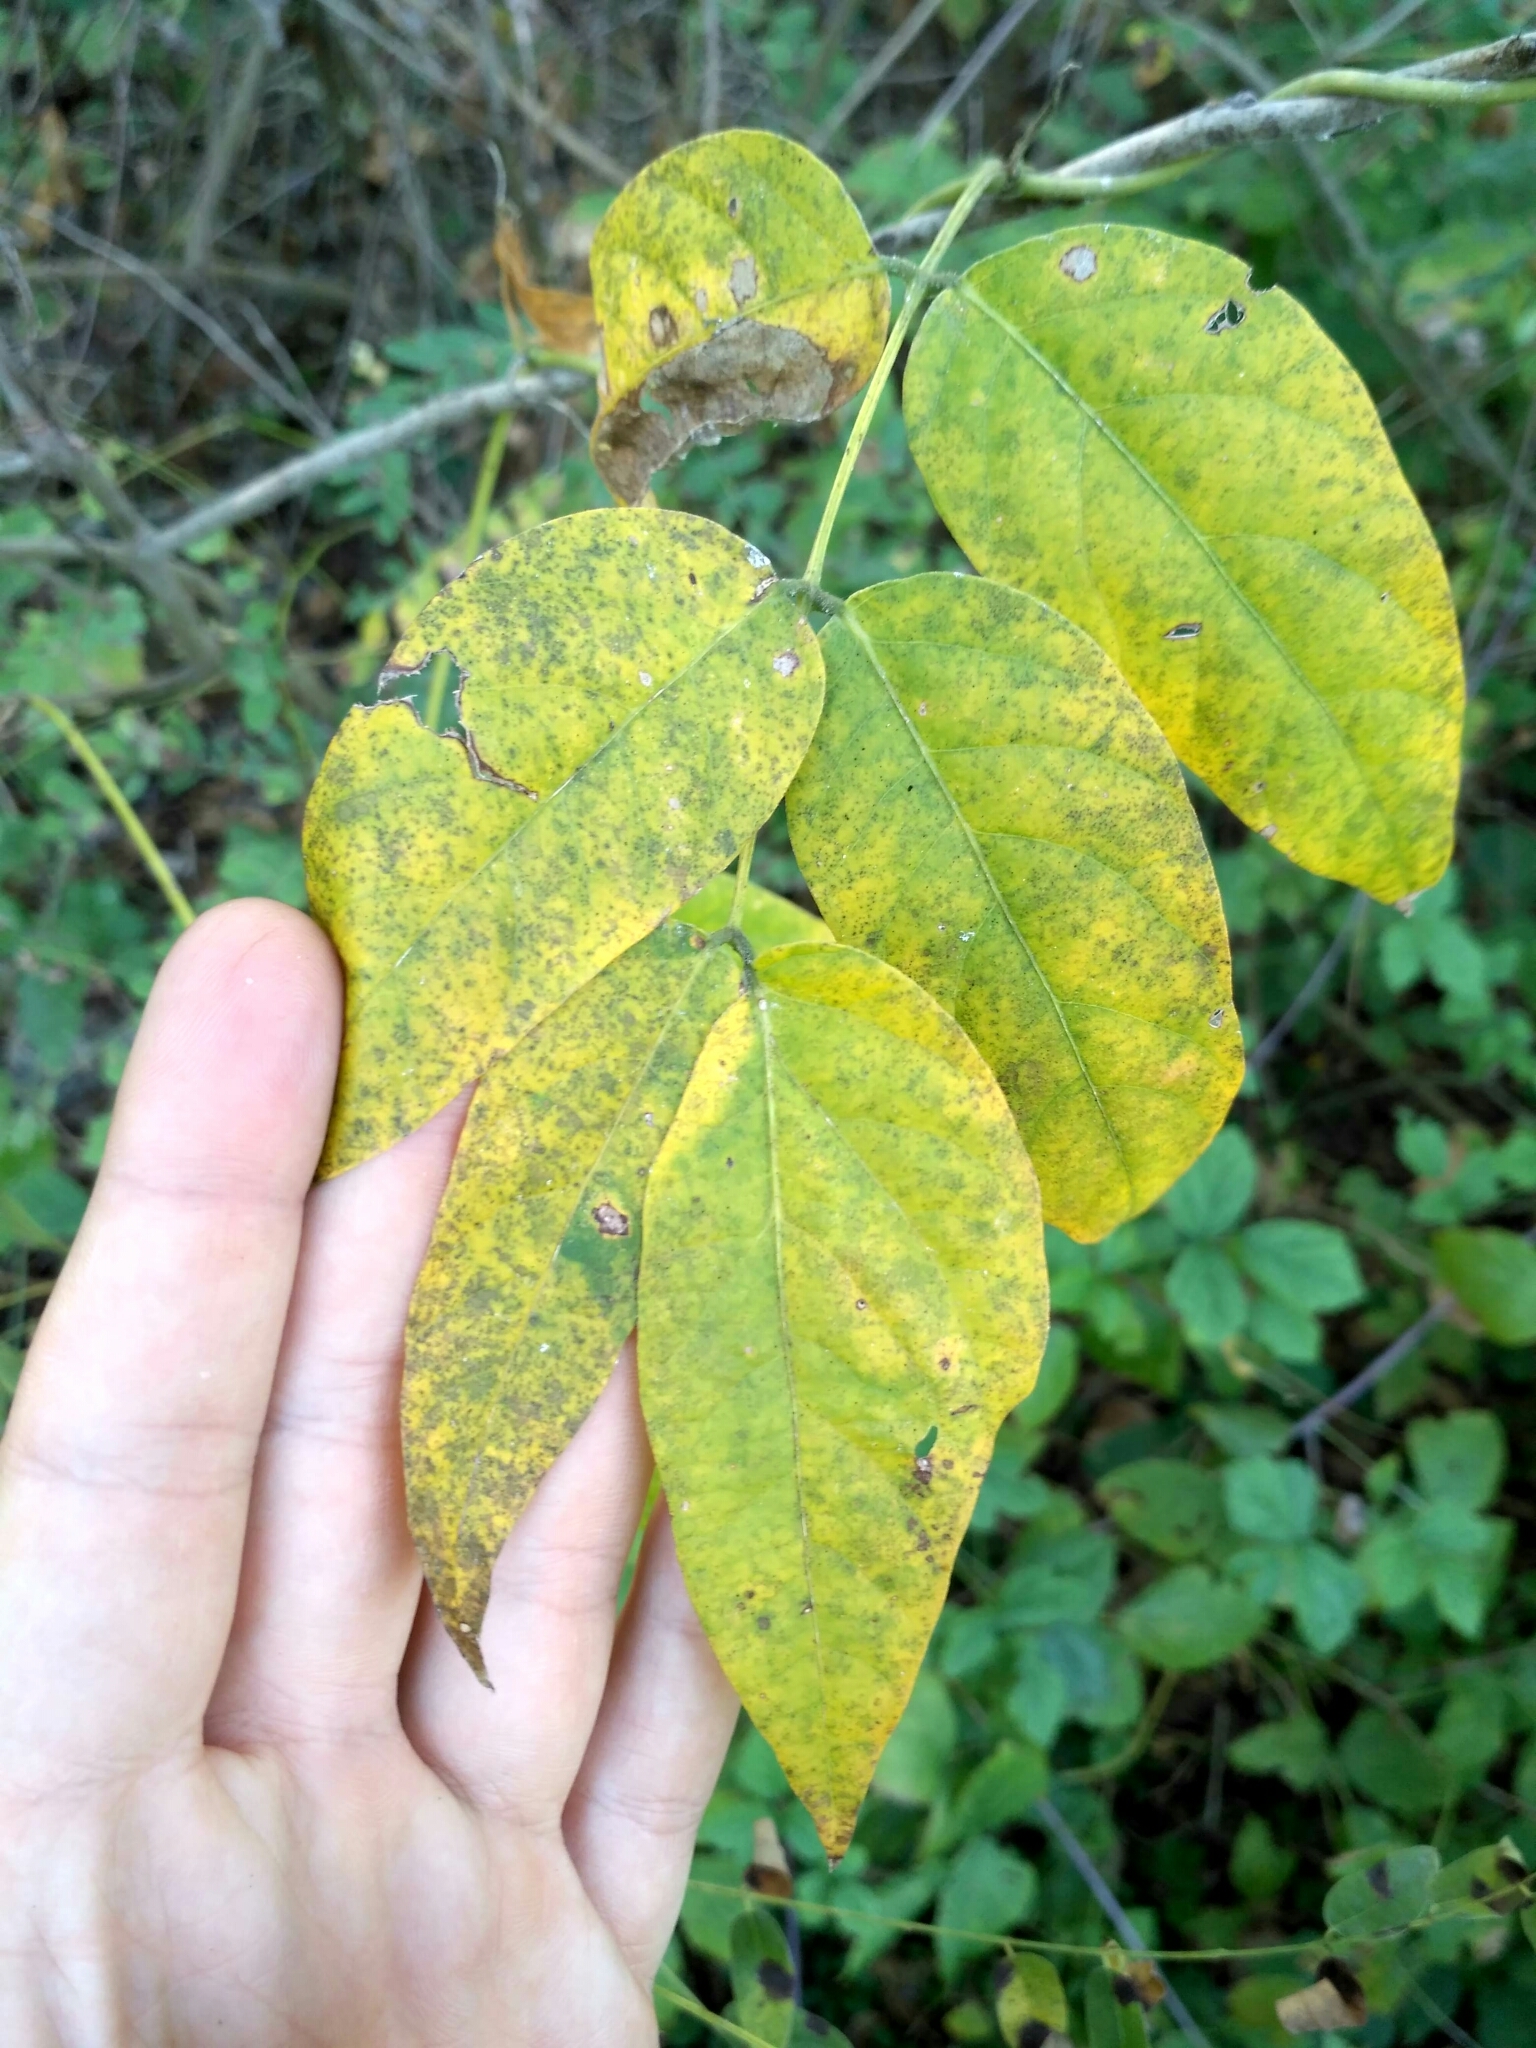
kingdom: Plantae
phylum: Tracheophyta
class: Magnoliopsida
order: Fabales
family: Fabaceae
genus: Apios
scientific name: Apios americana
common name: American potato-bean
